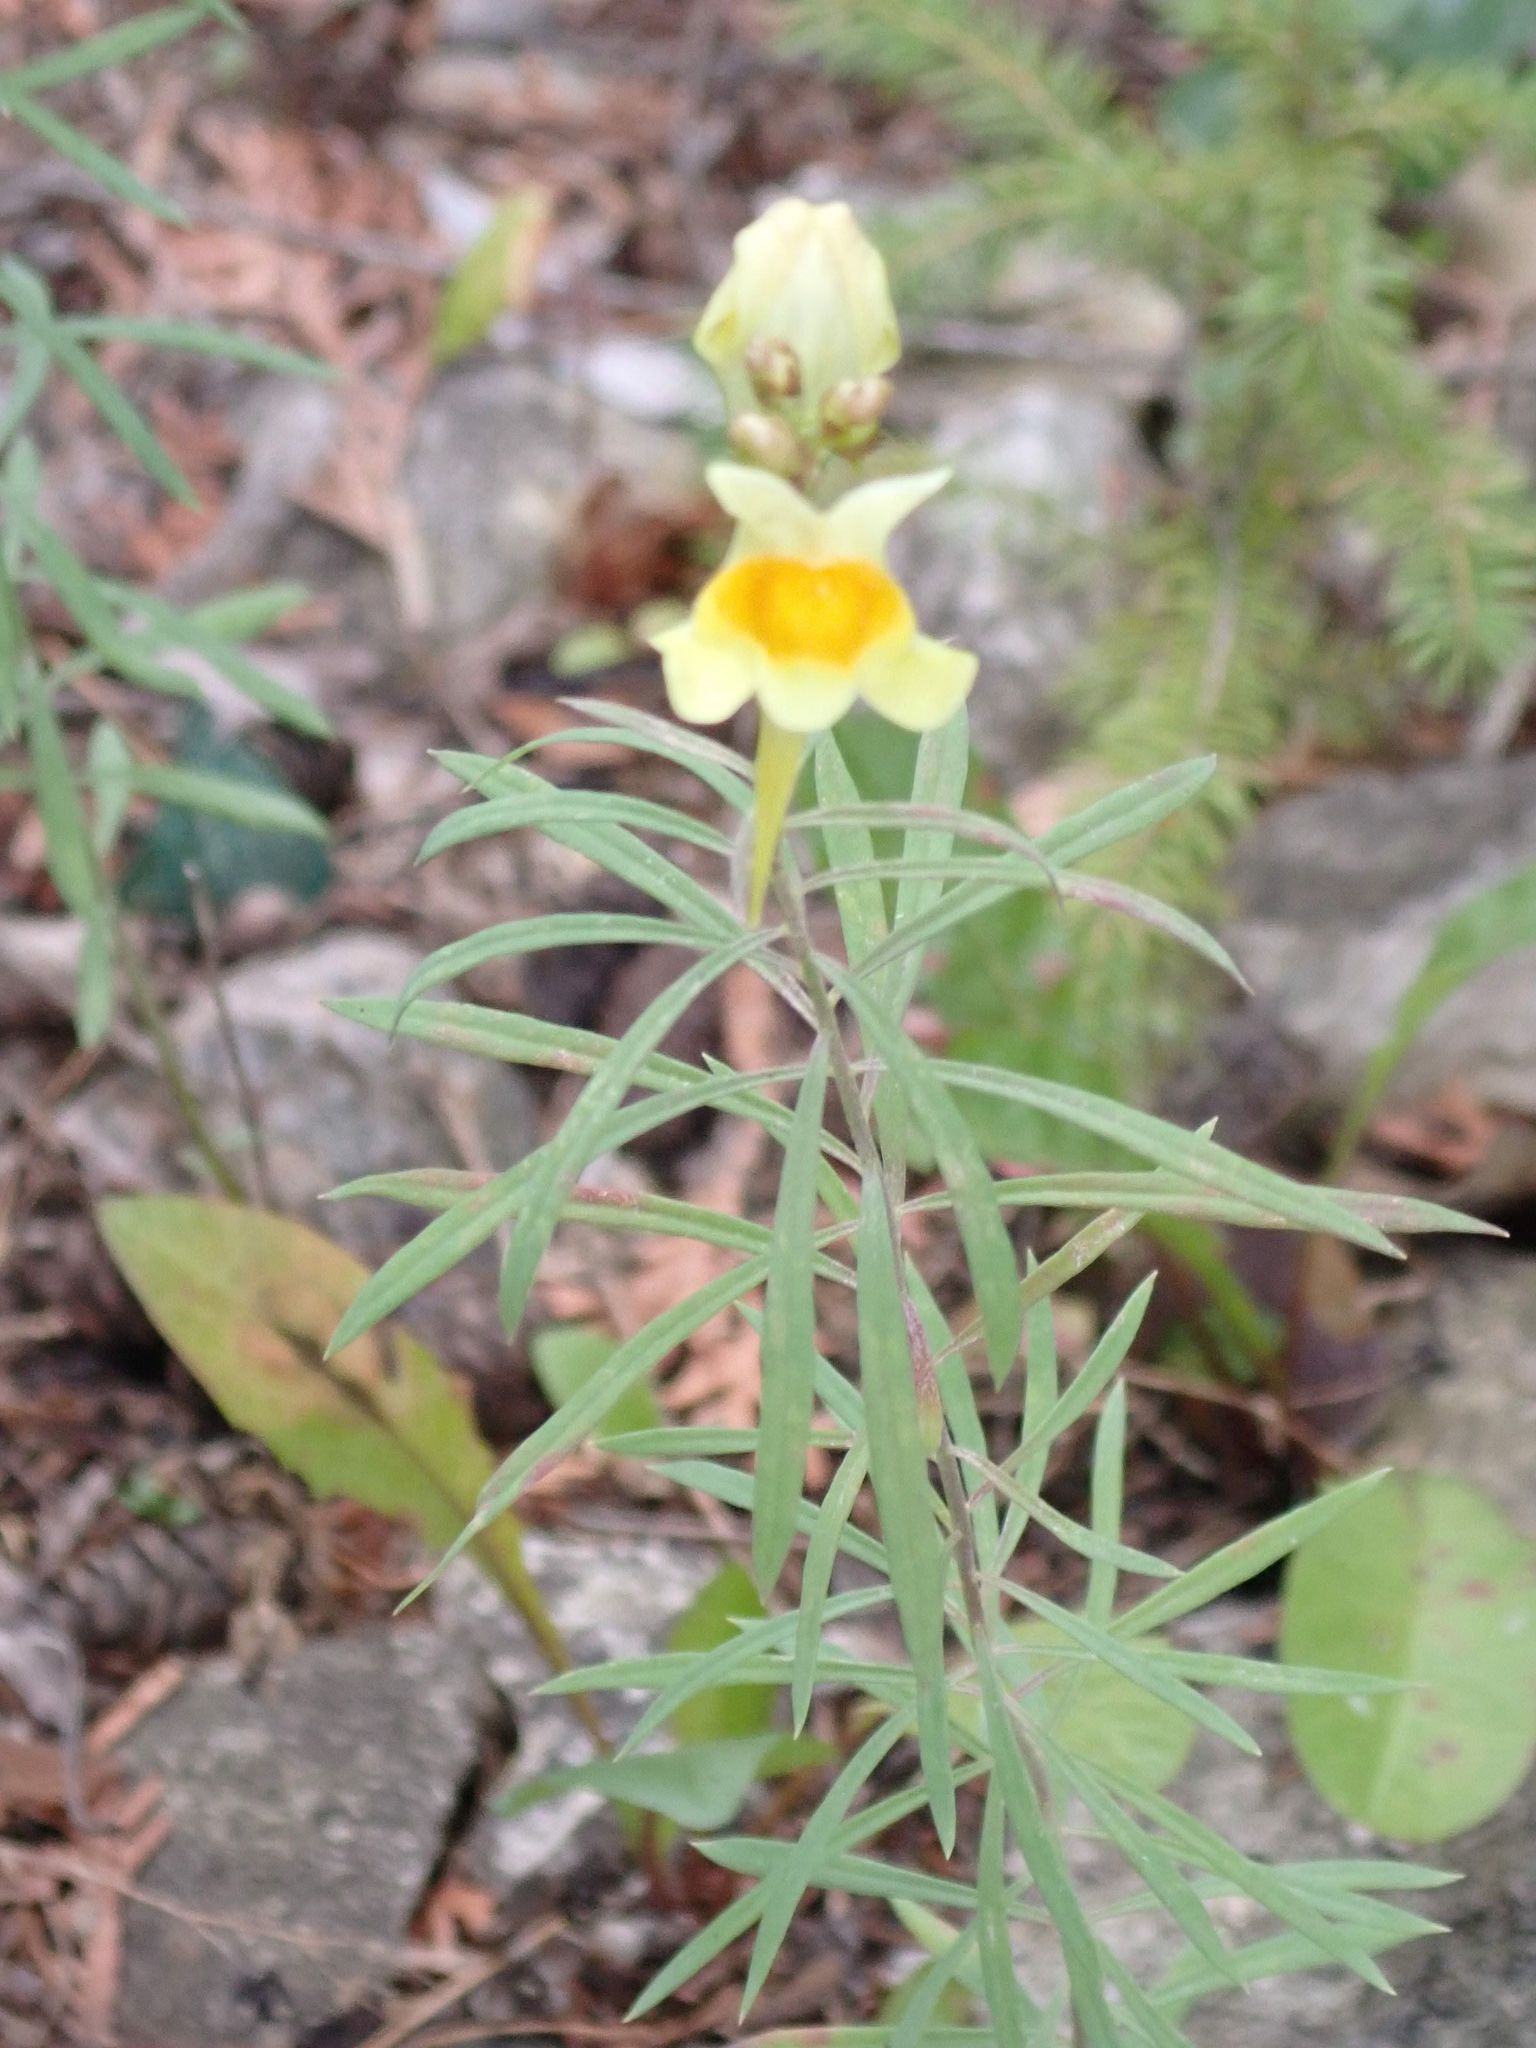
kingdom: Plantae
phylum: Tracheophyta
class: Magnoliopsida
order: Lamiales
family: Plantaginaceae
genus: Linaria
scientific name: Linaria vulgaris
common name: Butter and eggs
